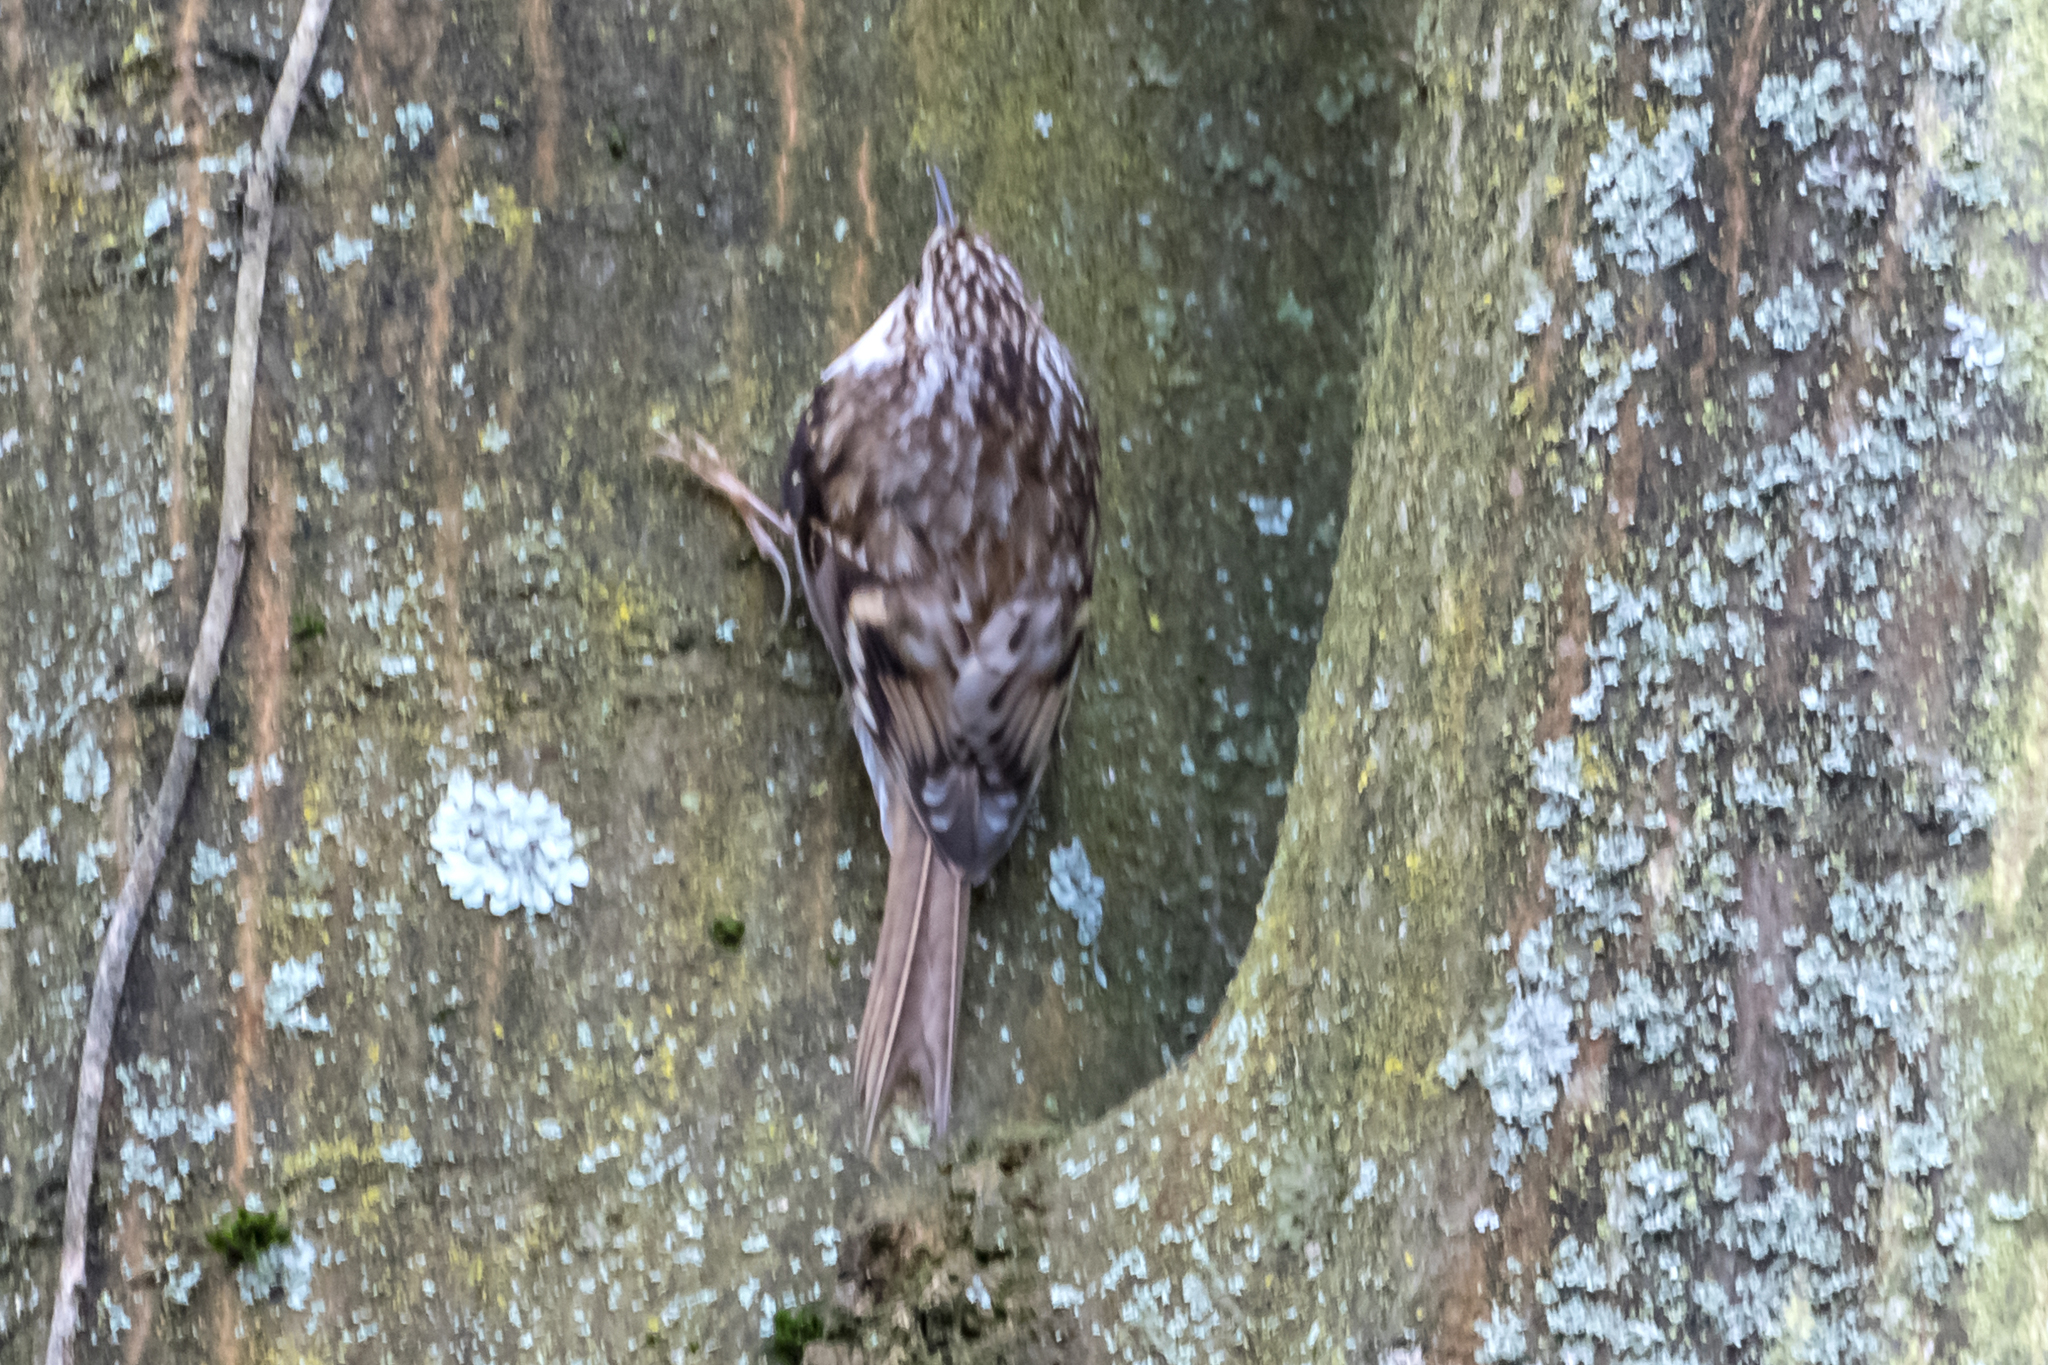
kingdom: Animalia
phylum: Chordata
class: Aves
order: Passeriformes
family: Certhiidae
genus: Certhia
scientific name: Certhia familiaris
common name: Eurasian treecreeper
